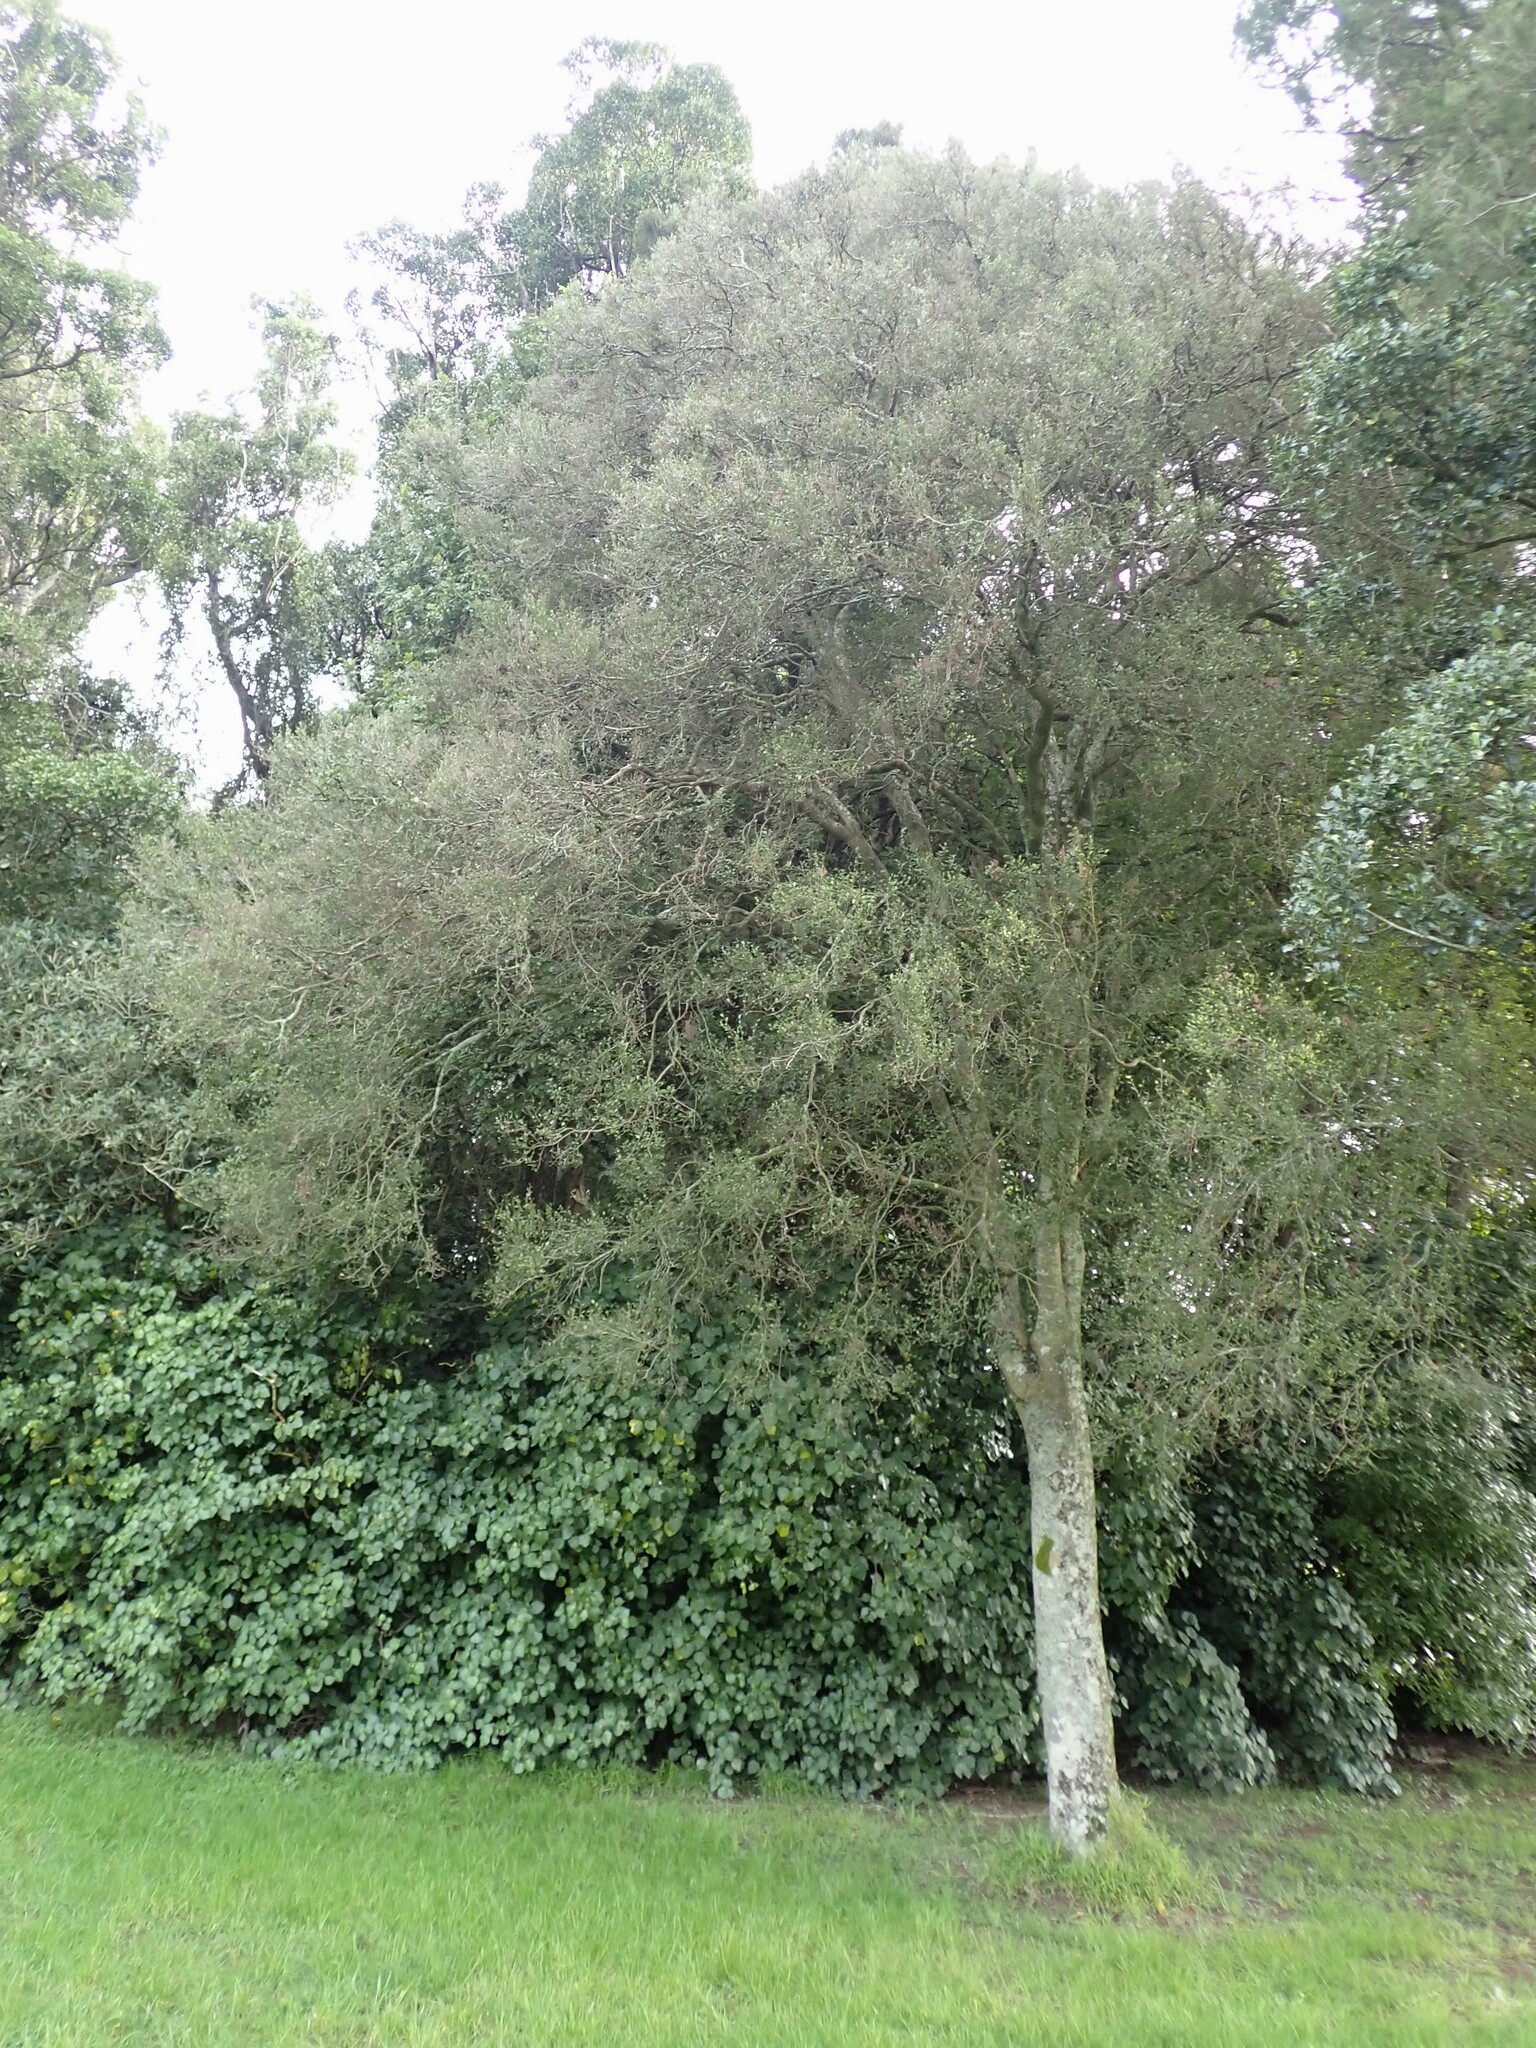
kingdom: Plantae
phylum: Tracheophyta
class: Magnoliopsida
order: Rosales
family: Moraceae
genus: Paratrophis
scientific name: Paratrophis microphylla
